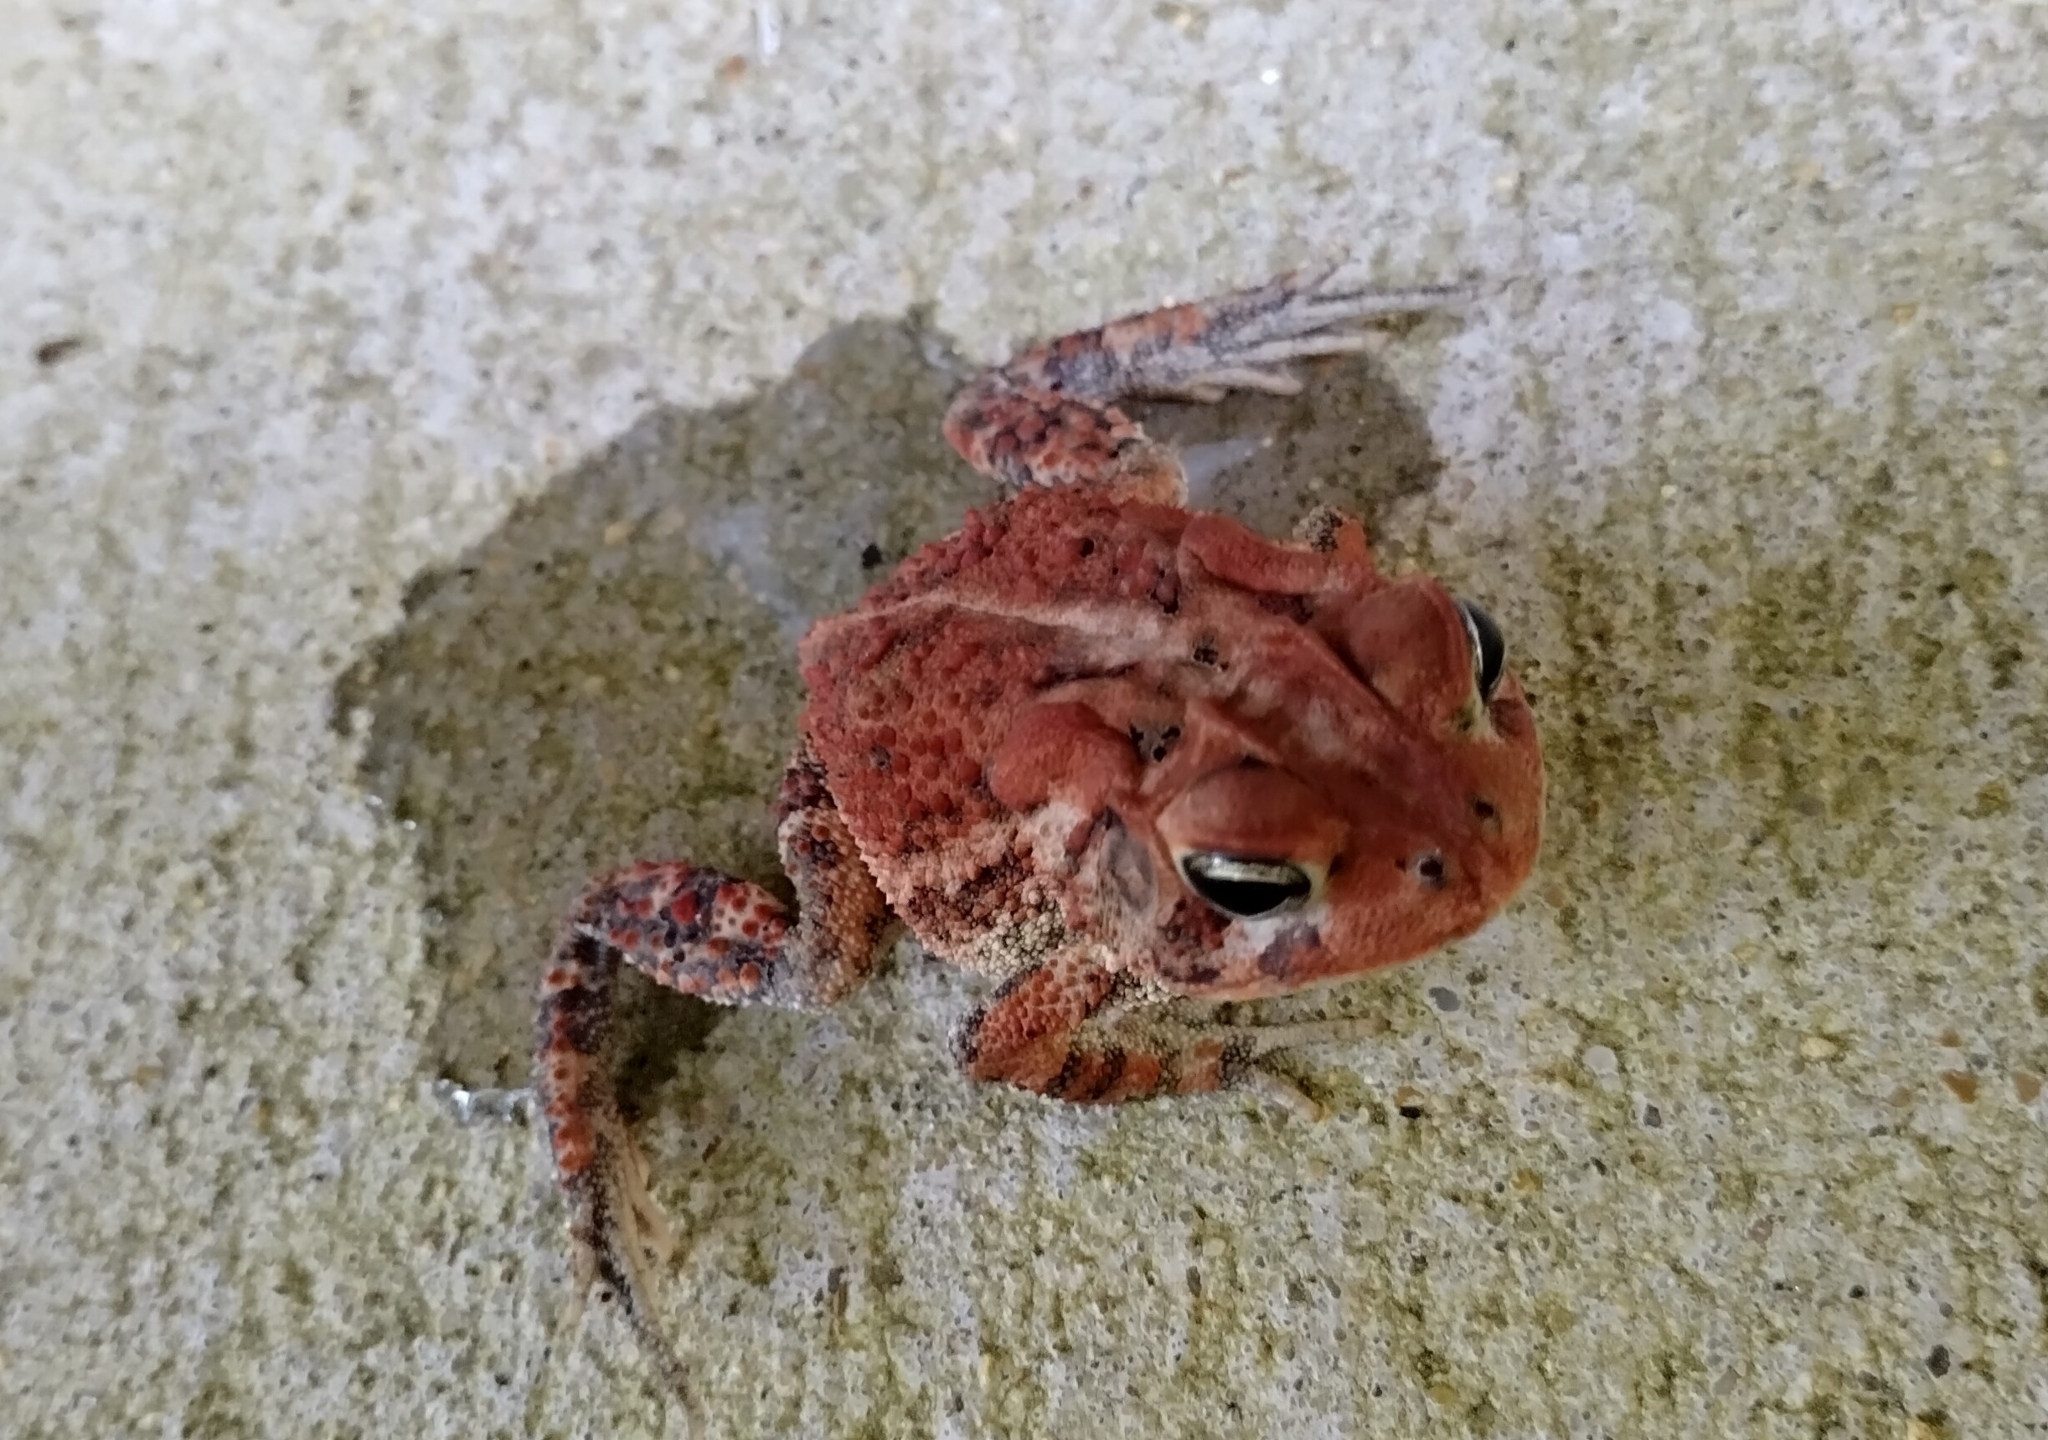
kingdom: Animalia
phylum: Chordata
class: Amphibia
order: Anura
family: Bufonidae
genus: Anaxyrus
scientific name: Anaxyrus terrestris
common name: Southern toad
